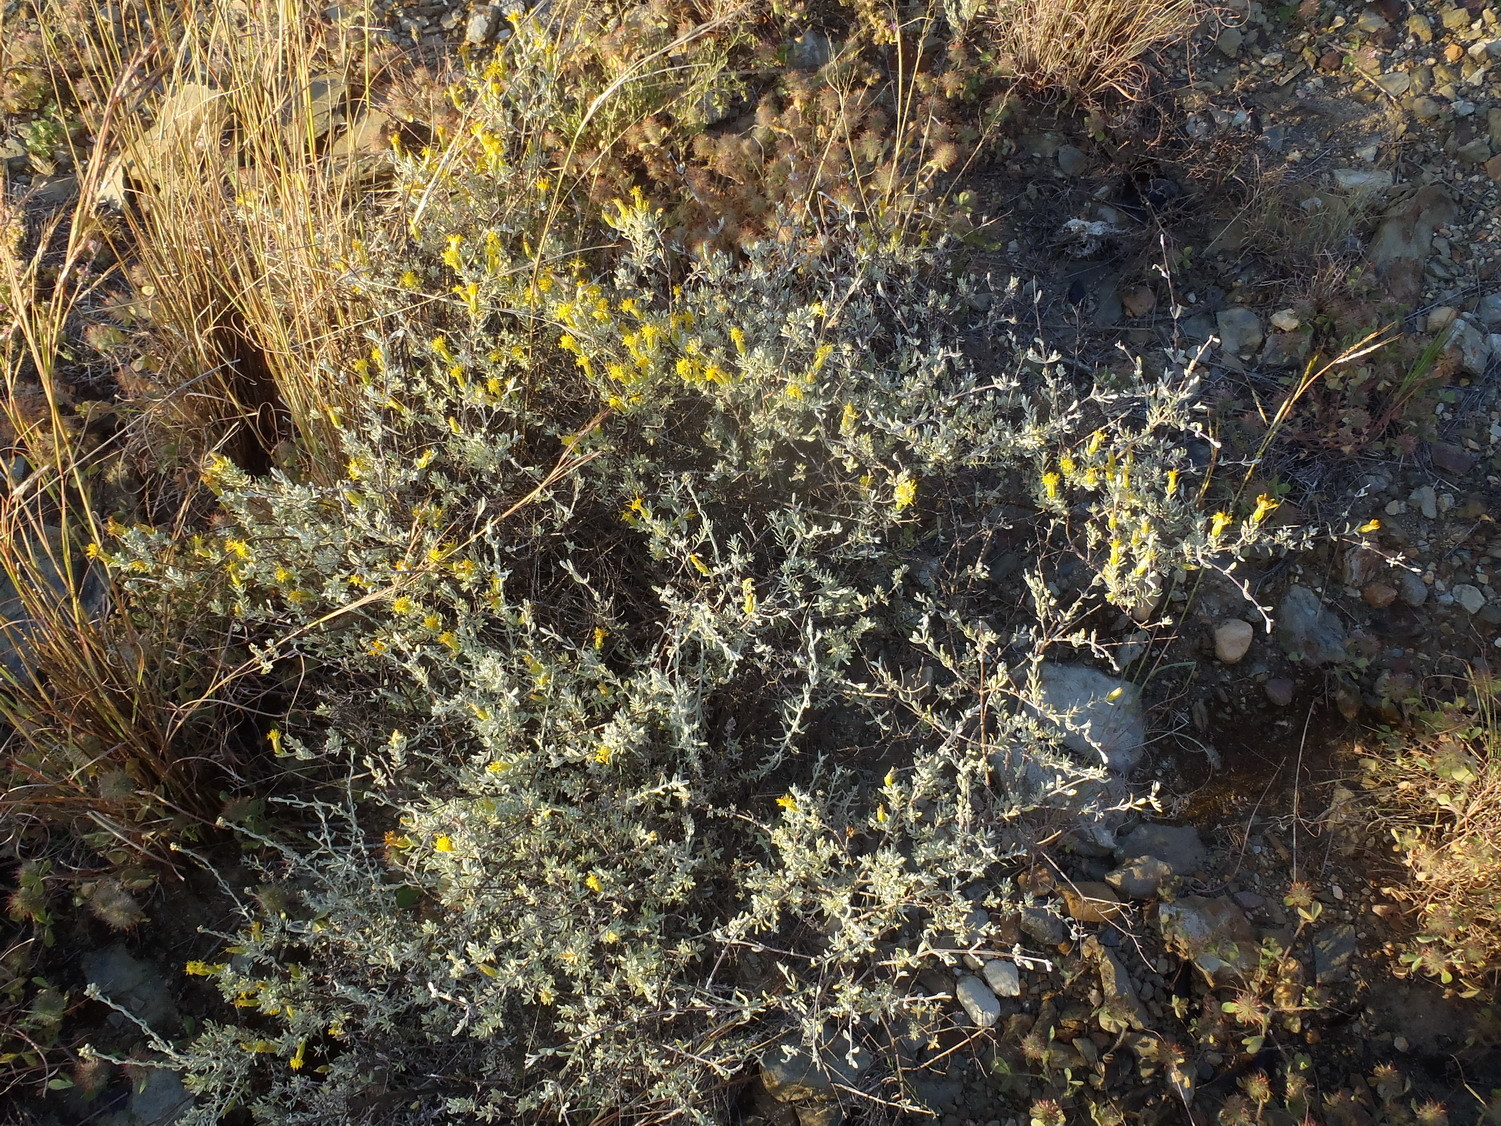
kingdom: Plantae
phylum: Tracheophyta
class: Magnoliopsida
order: Asterales
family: Asteraceae
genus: Pteronia
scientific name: Pteronia incana
